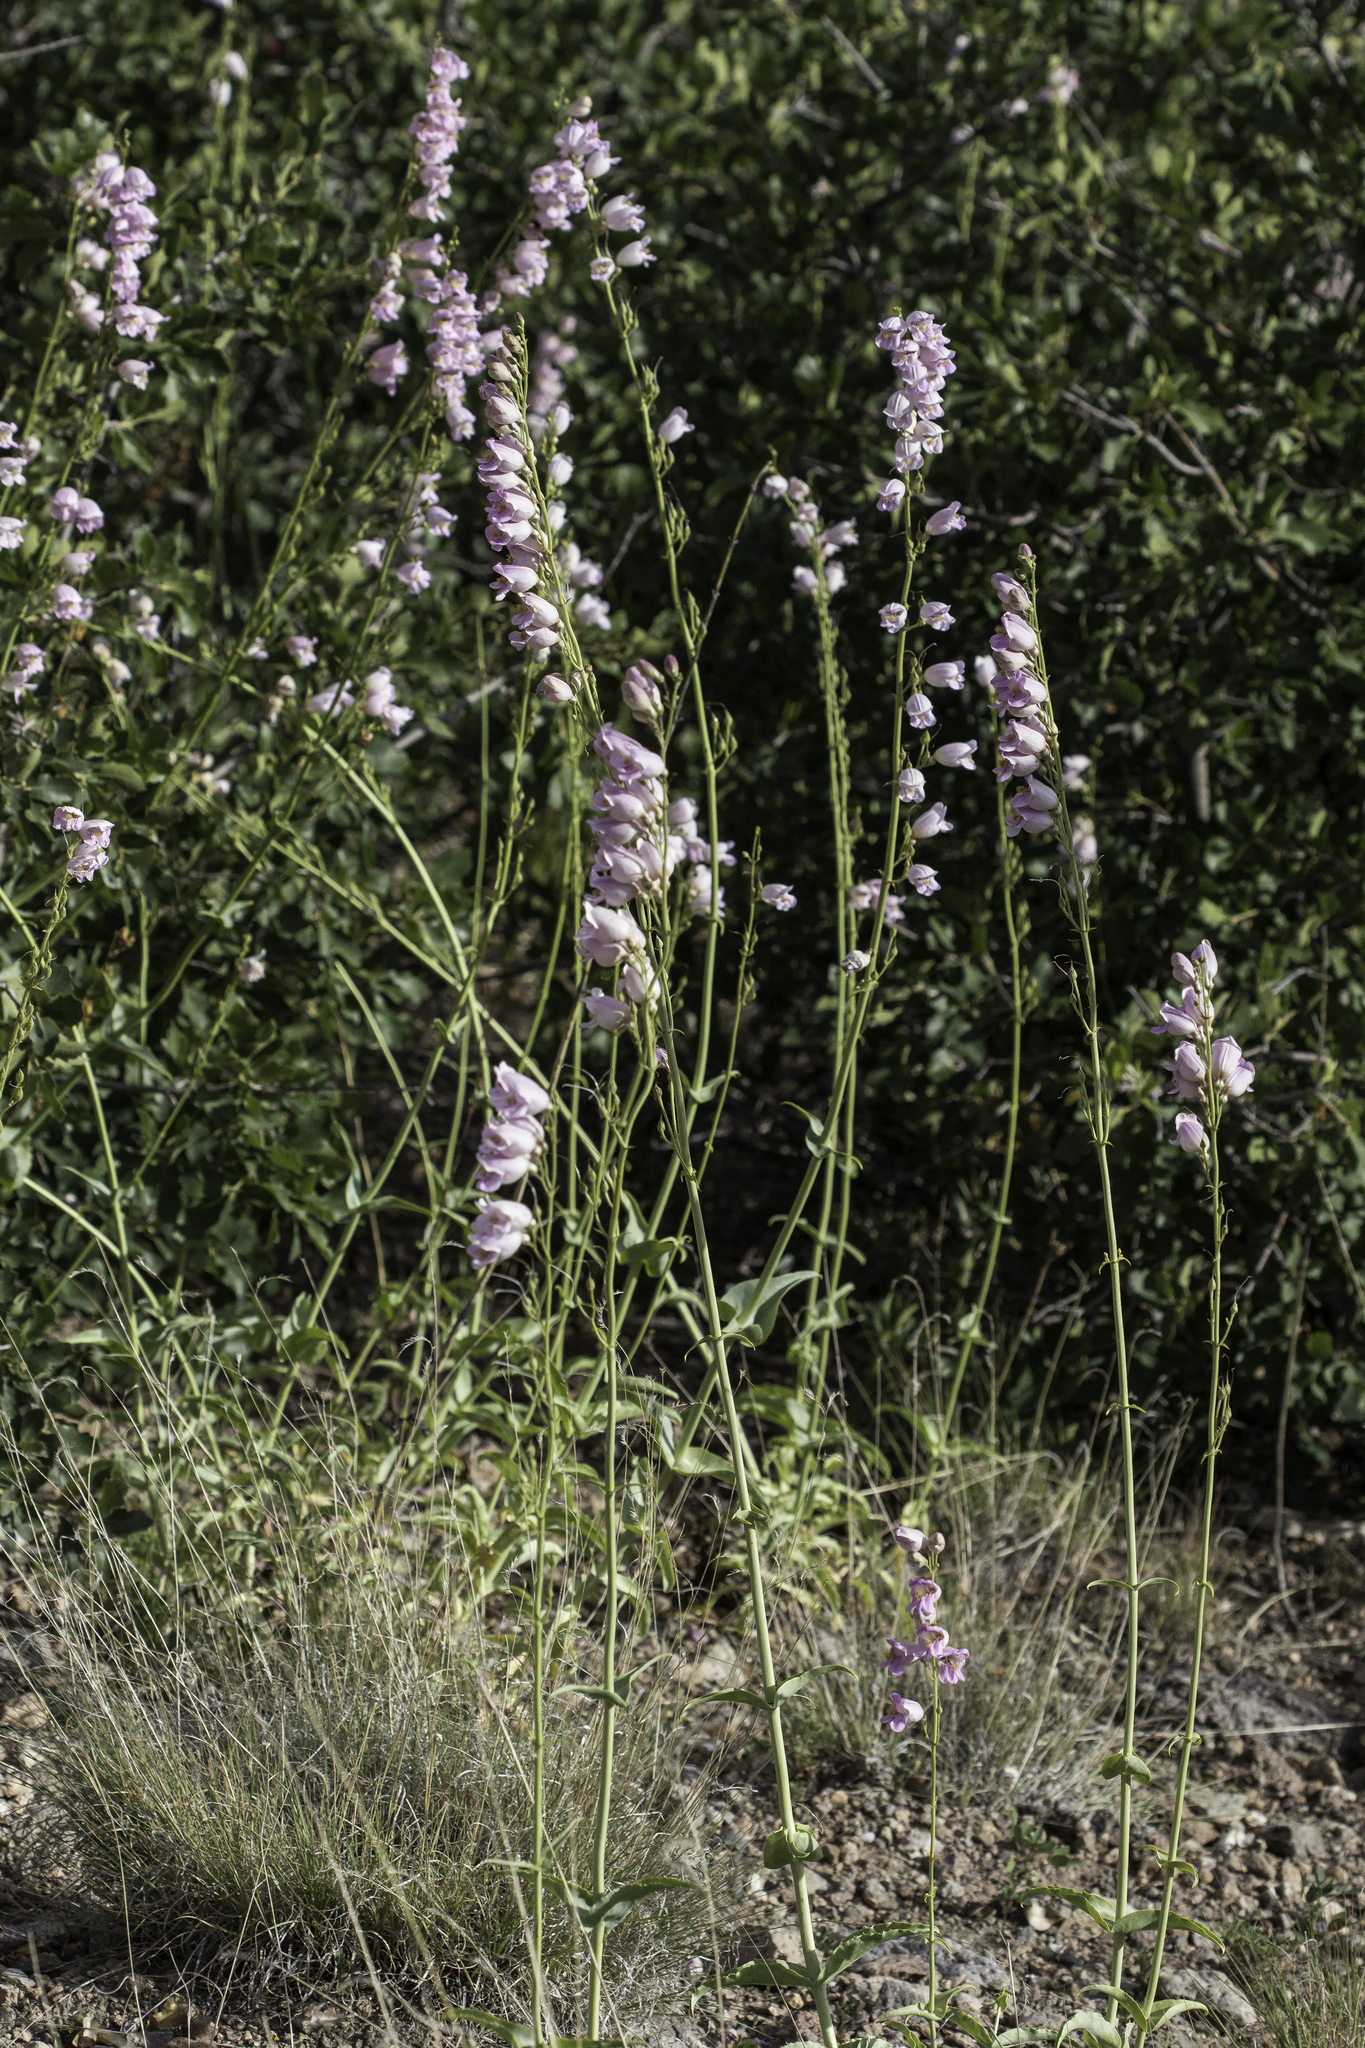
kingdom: Plantae
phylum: Tracheophyta
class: Magnoliopsida
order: Lamiales
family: Plantaginaceae
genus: Penstemon
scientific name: Penstemon palmeri
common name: Palmer penstemon
